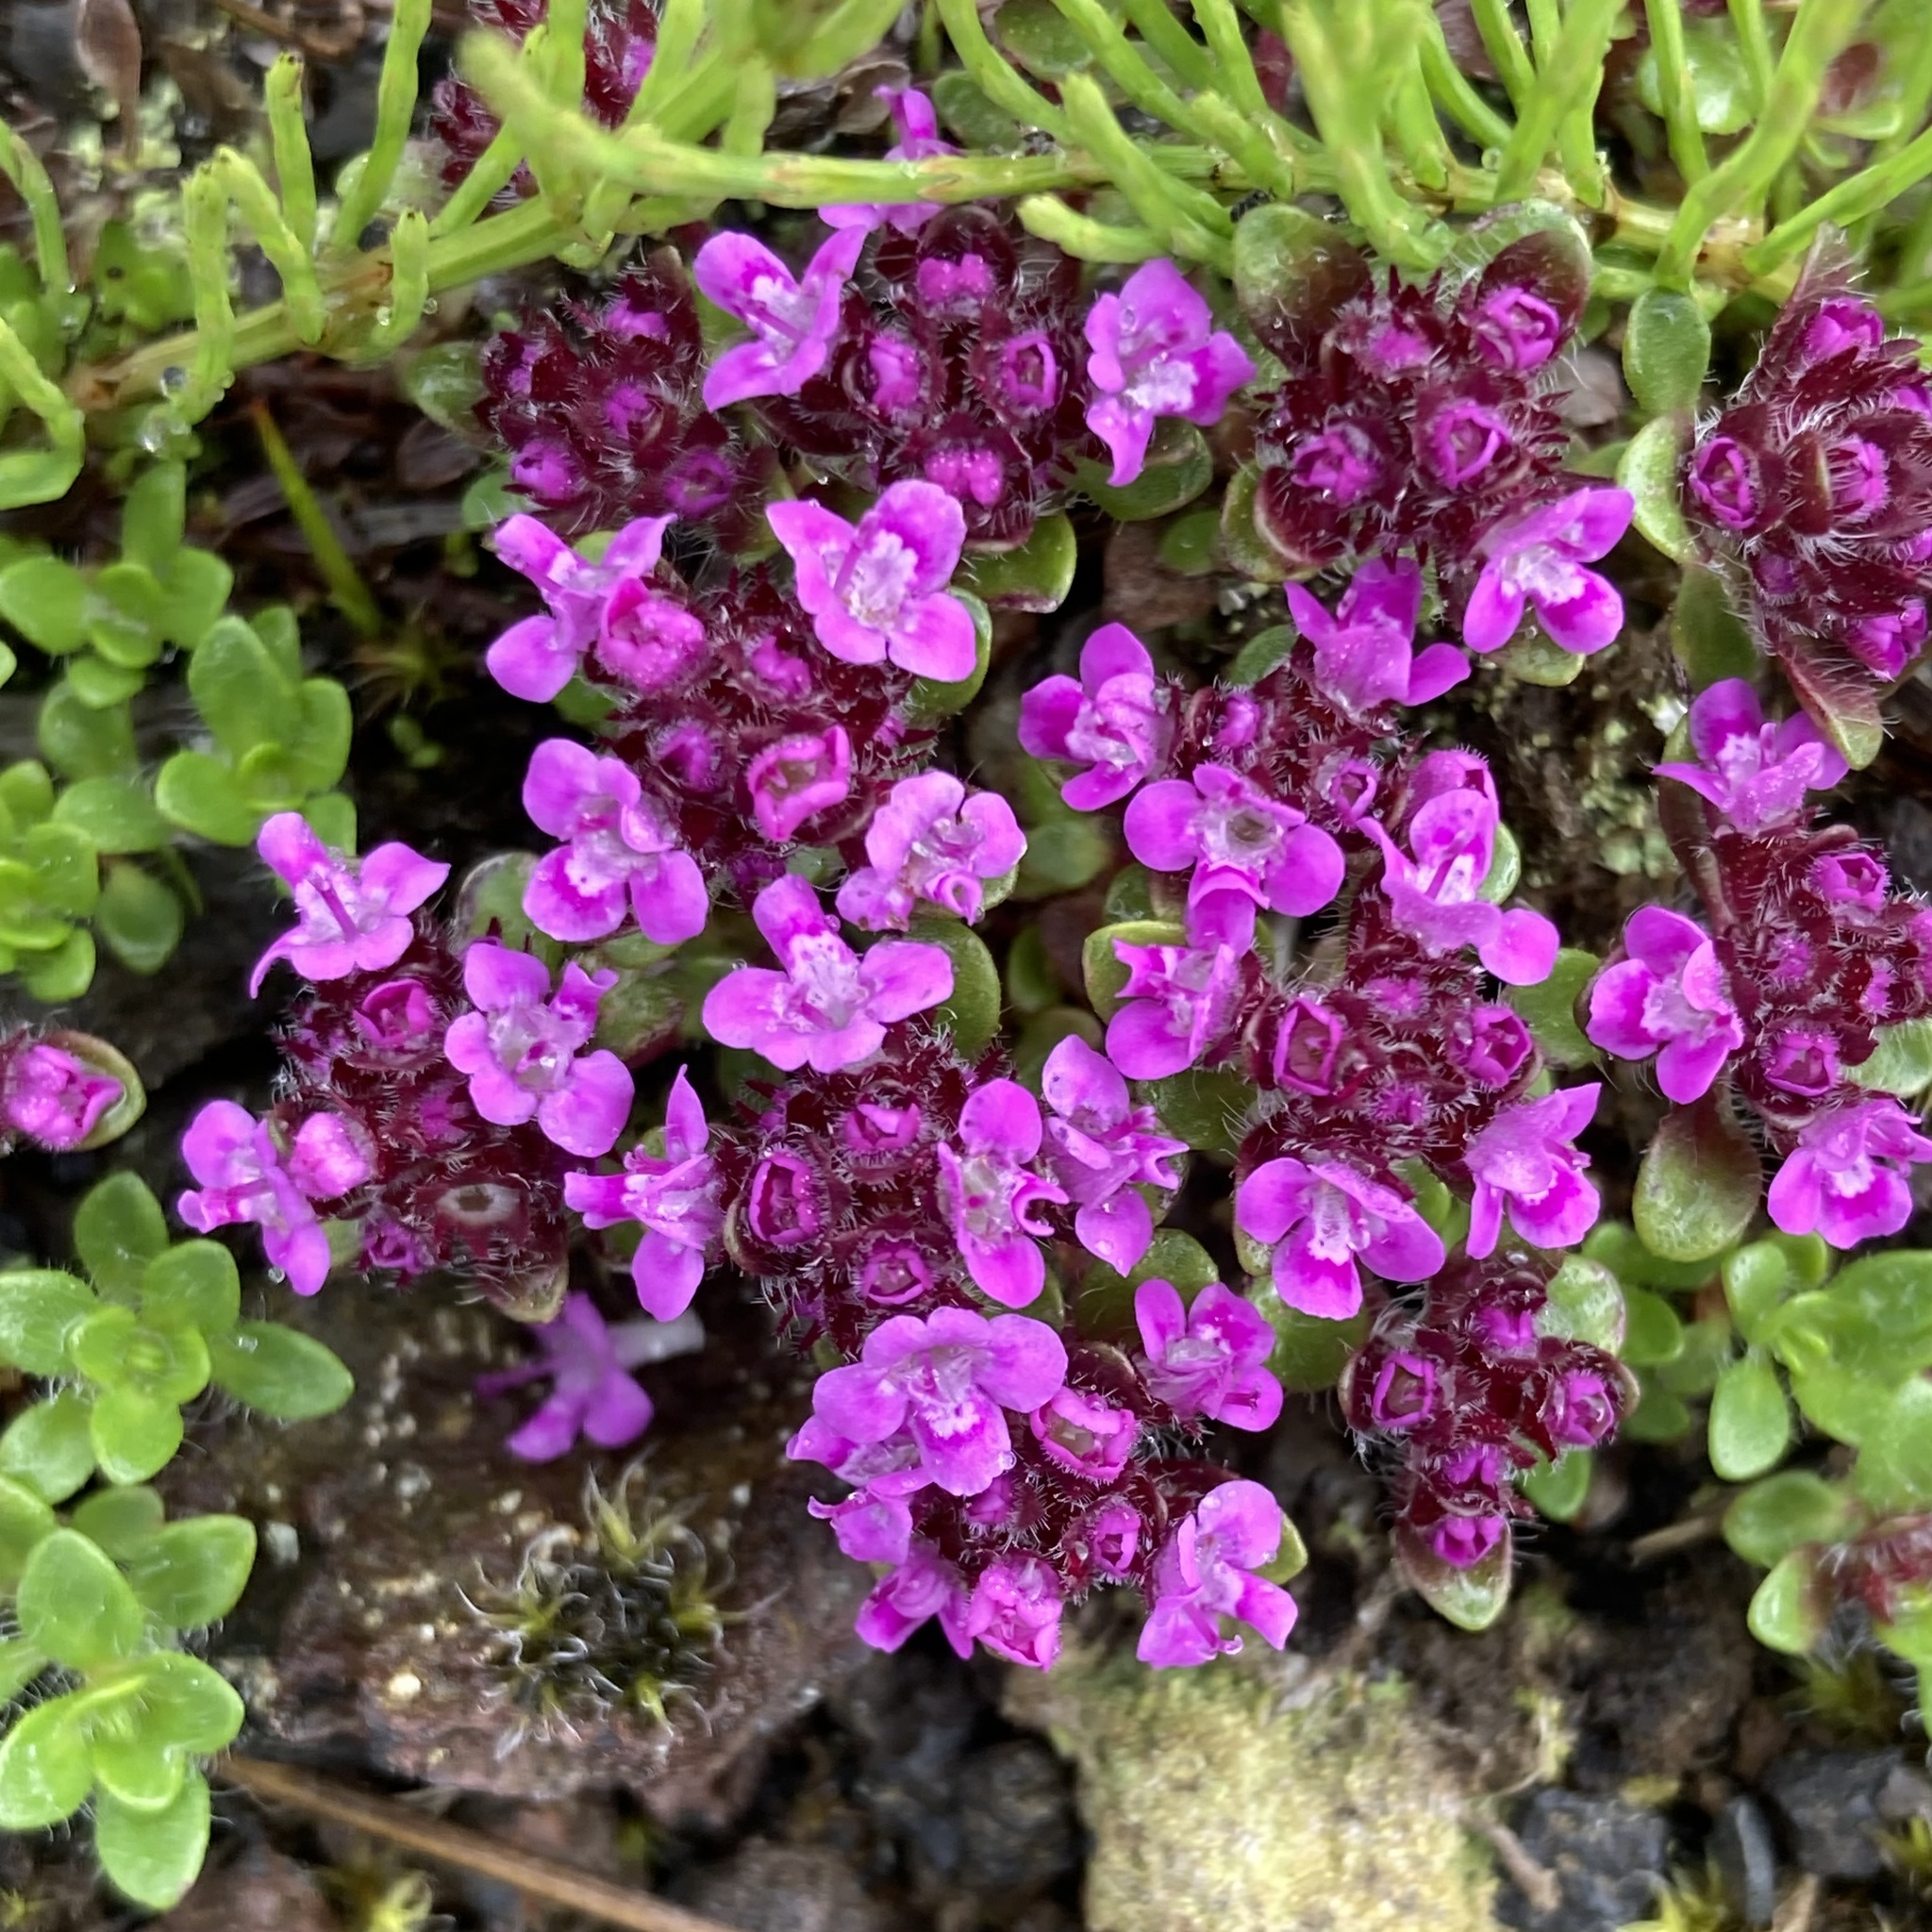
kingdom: Plantae
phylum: Tracheophyta
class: Magnoliopsida
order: Lamiales
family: Lamiaceae
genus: Thymus
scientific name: Thymus praecox
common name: Wild thyme
